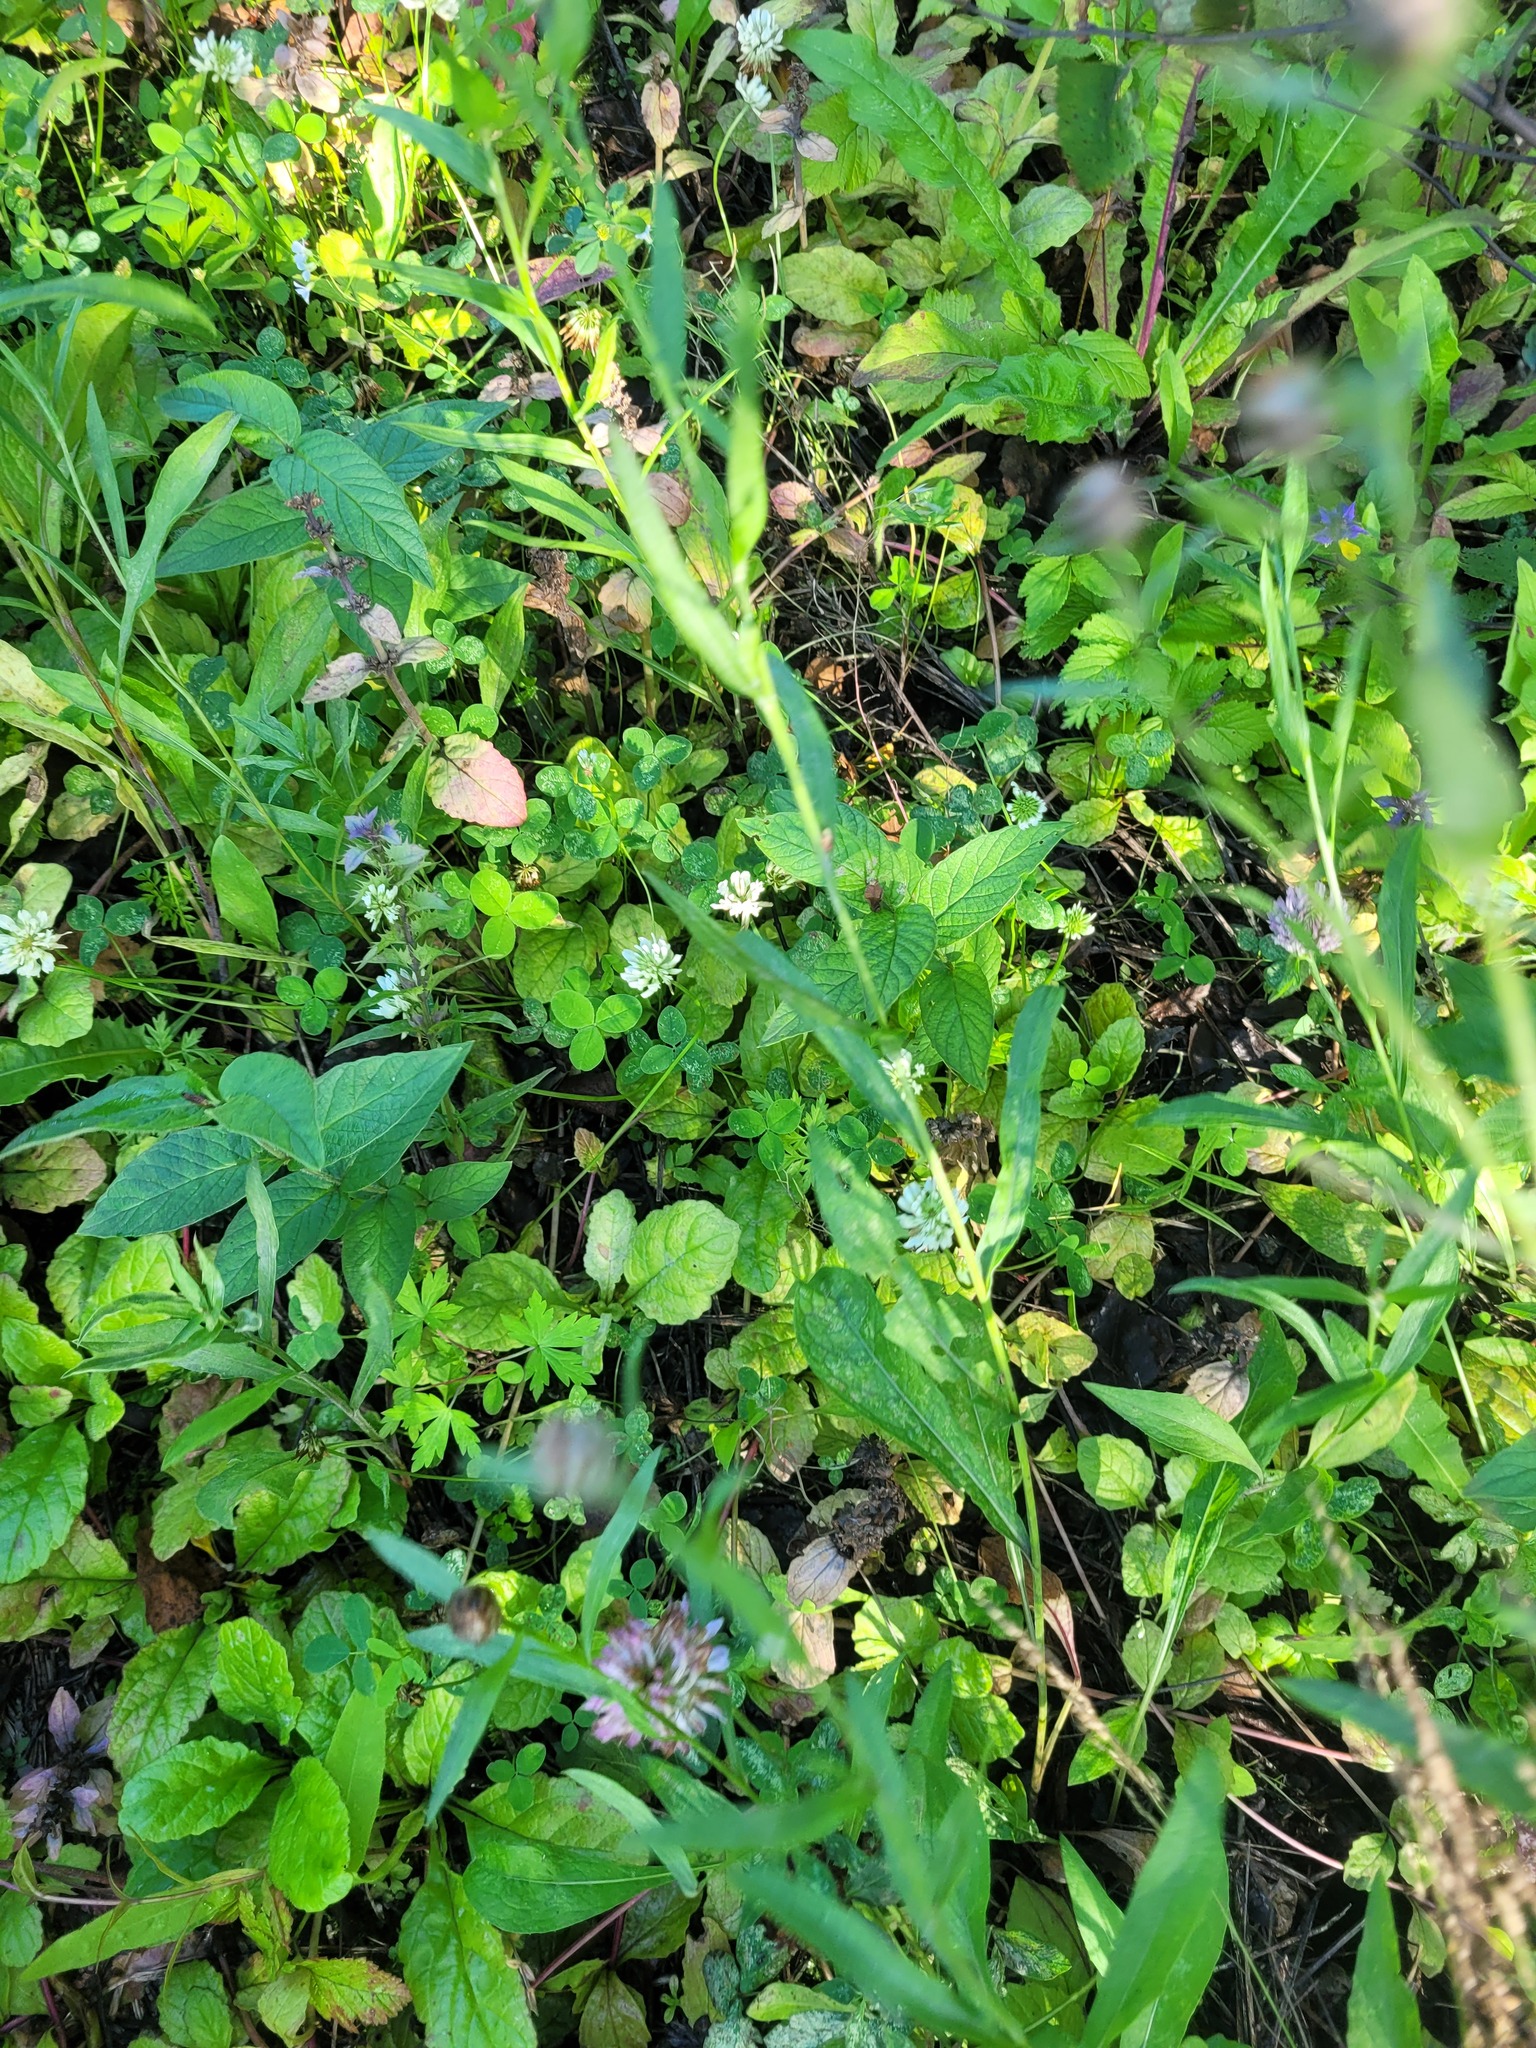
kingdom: Plantae
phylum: Tracheophyta
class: Magnoliopsida
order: Fabales
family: Fabaceae
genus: Trifolium
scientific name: Trifolium repens
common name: White clover
